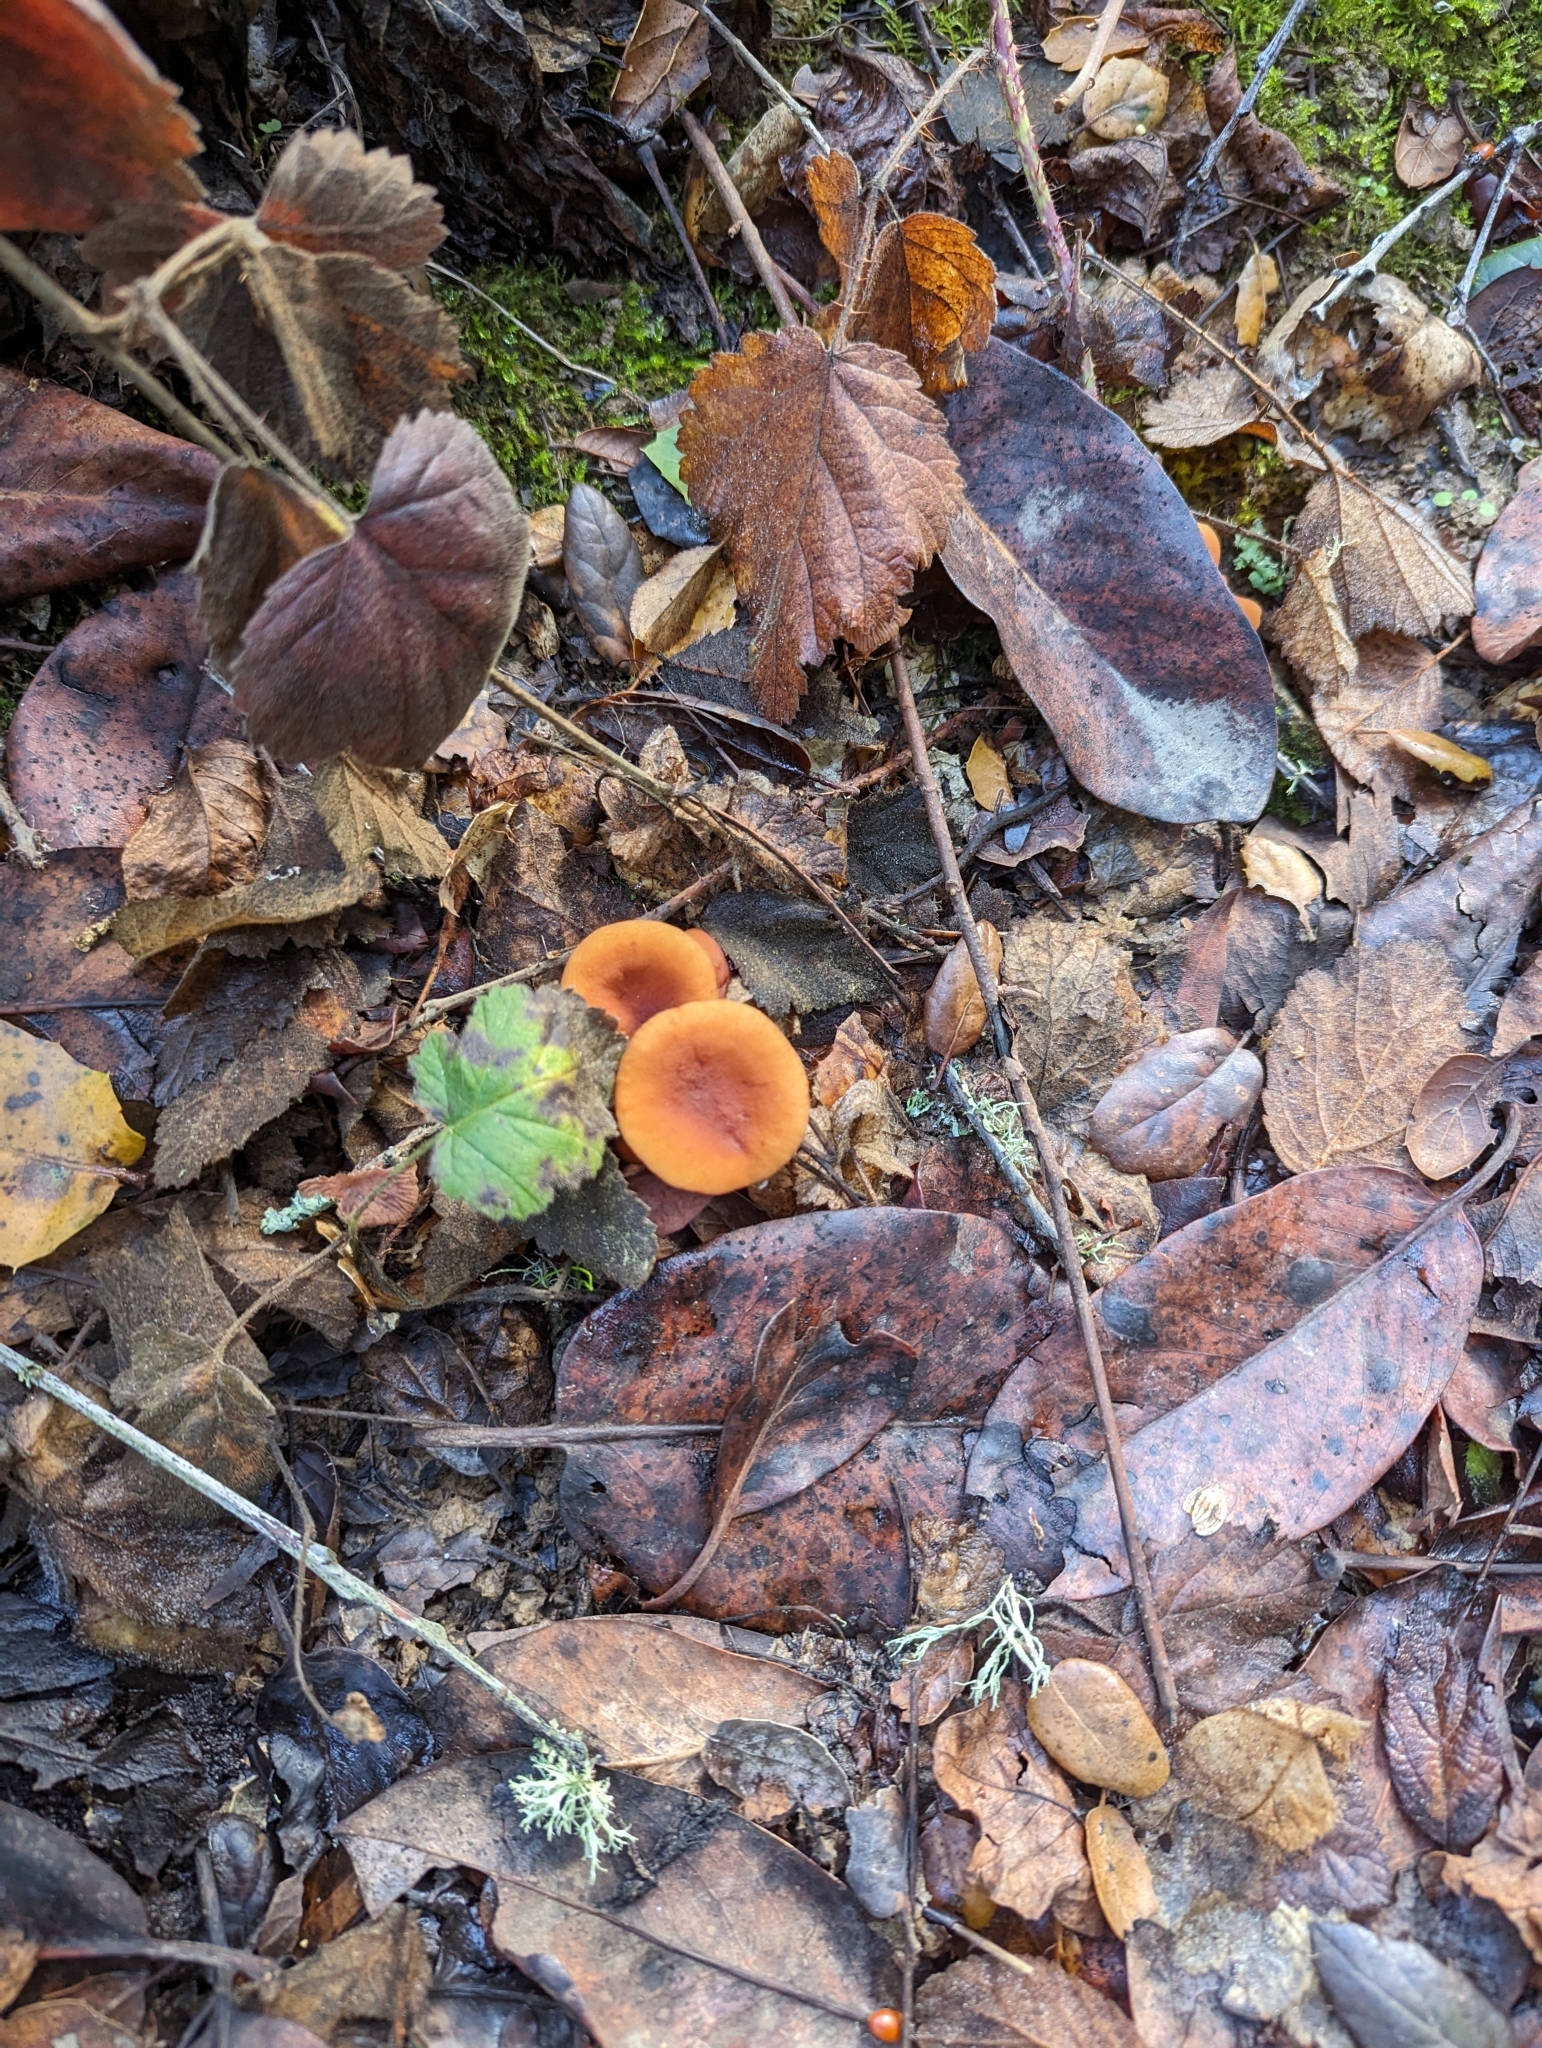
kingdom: Fungi
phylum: Basidiomycota
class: Agaricomycetes
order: Russulales
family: Russulaceae
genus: Lactarius
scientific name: Lactarius rubidus
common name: Candy cap
